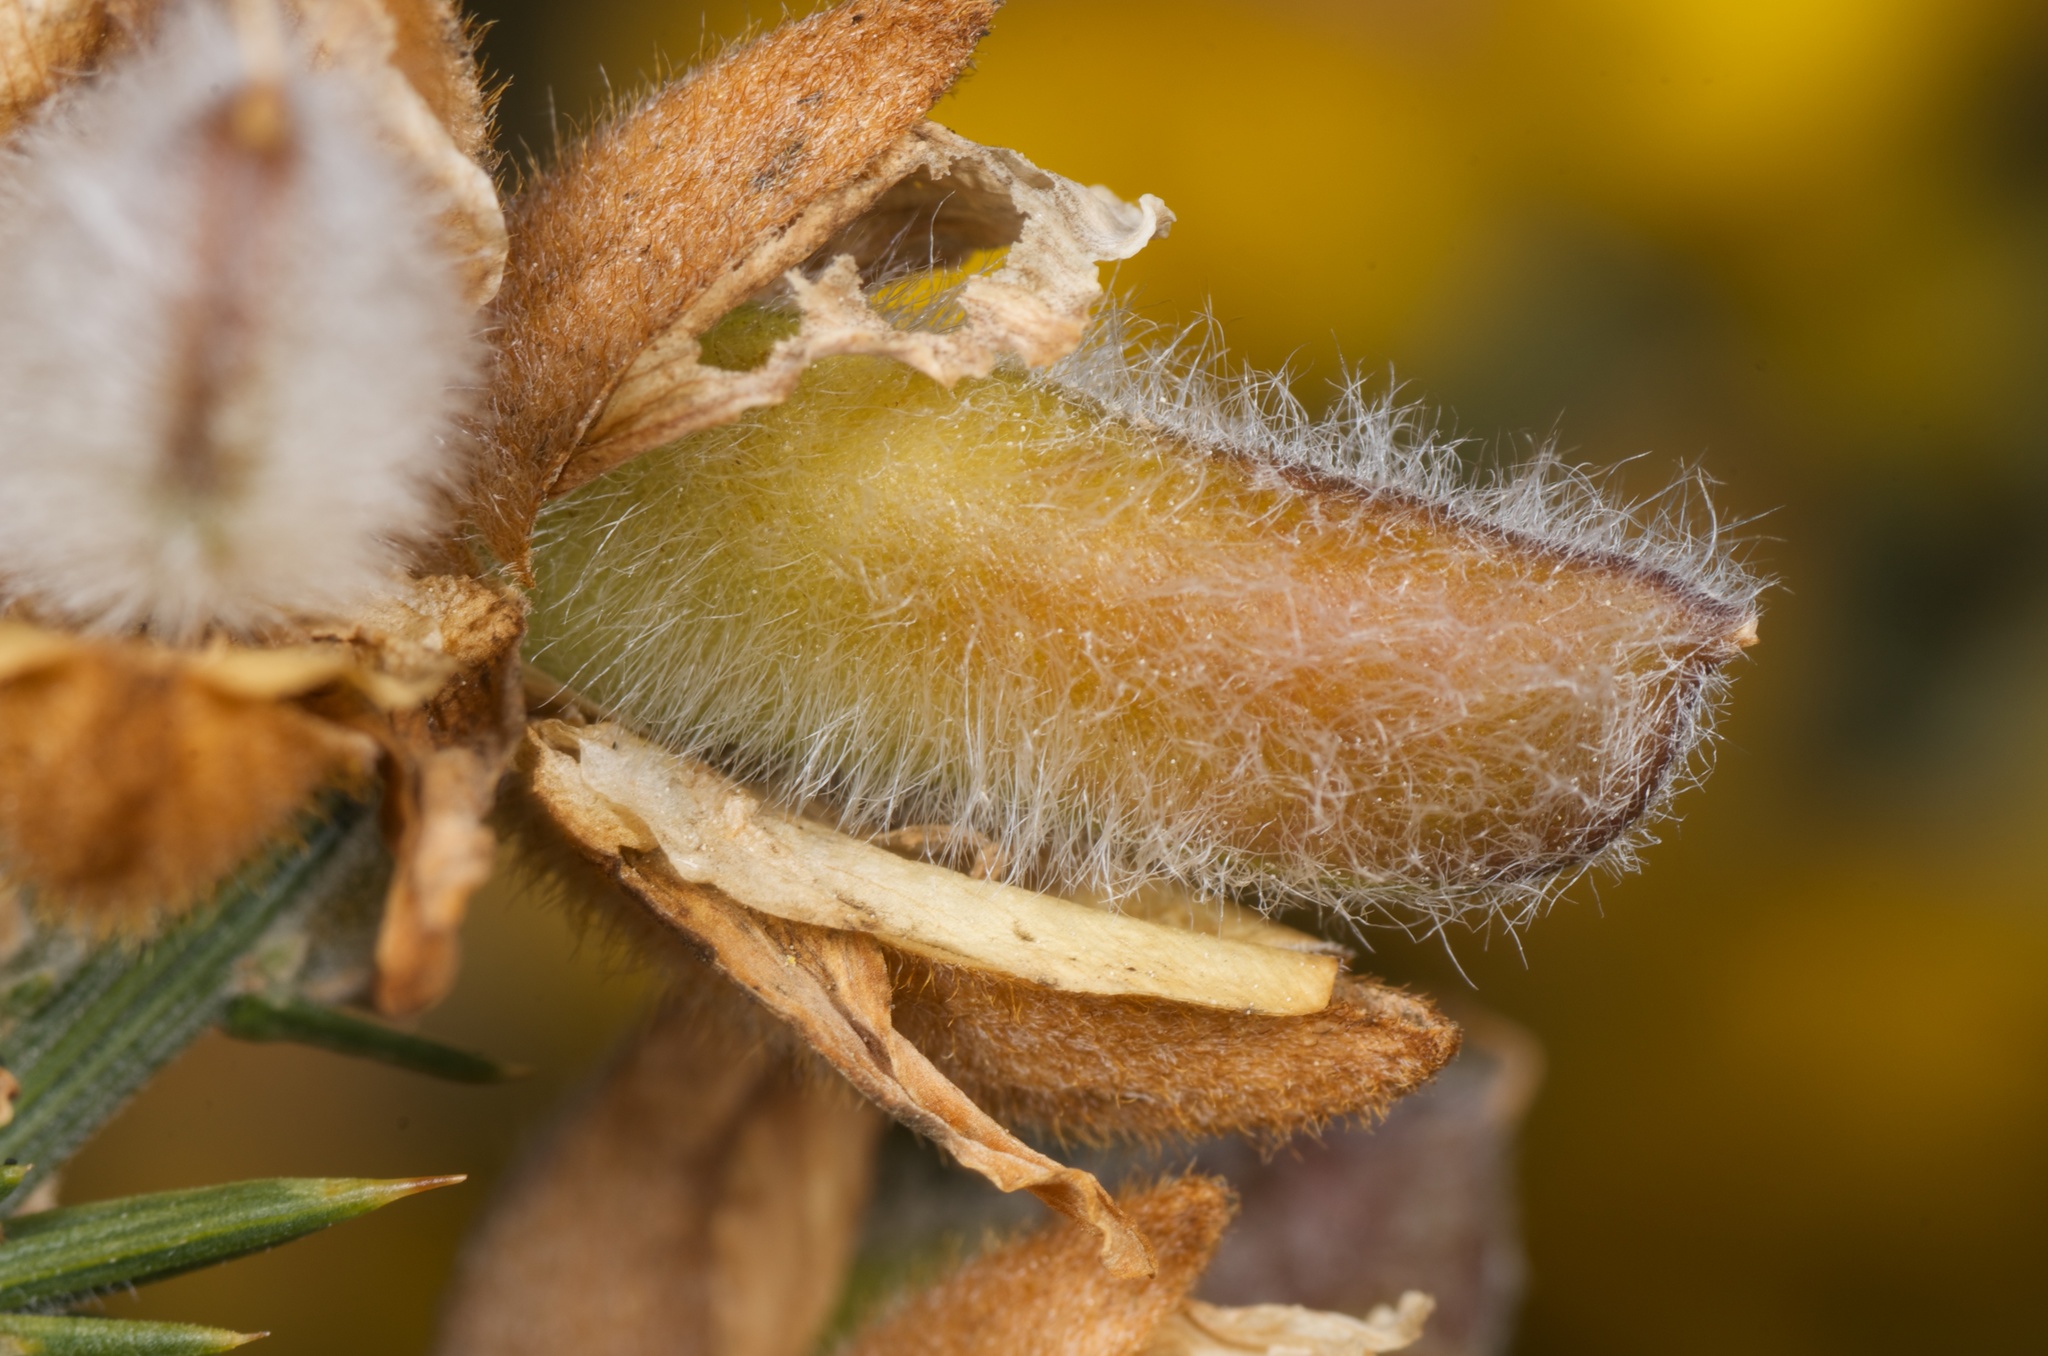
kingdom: Plantae
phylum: Tracheophyta
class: Magnoliopsida
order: Fabales
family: Fabaceae
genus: Ulex
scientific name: Ulex europaeus
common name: Common gorse
